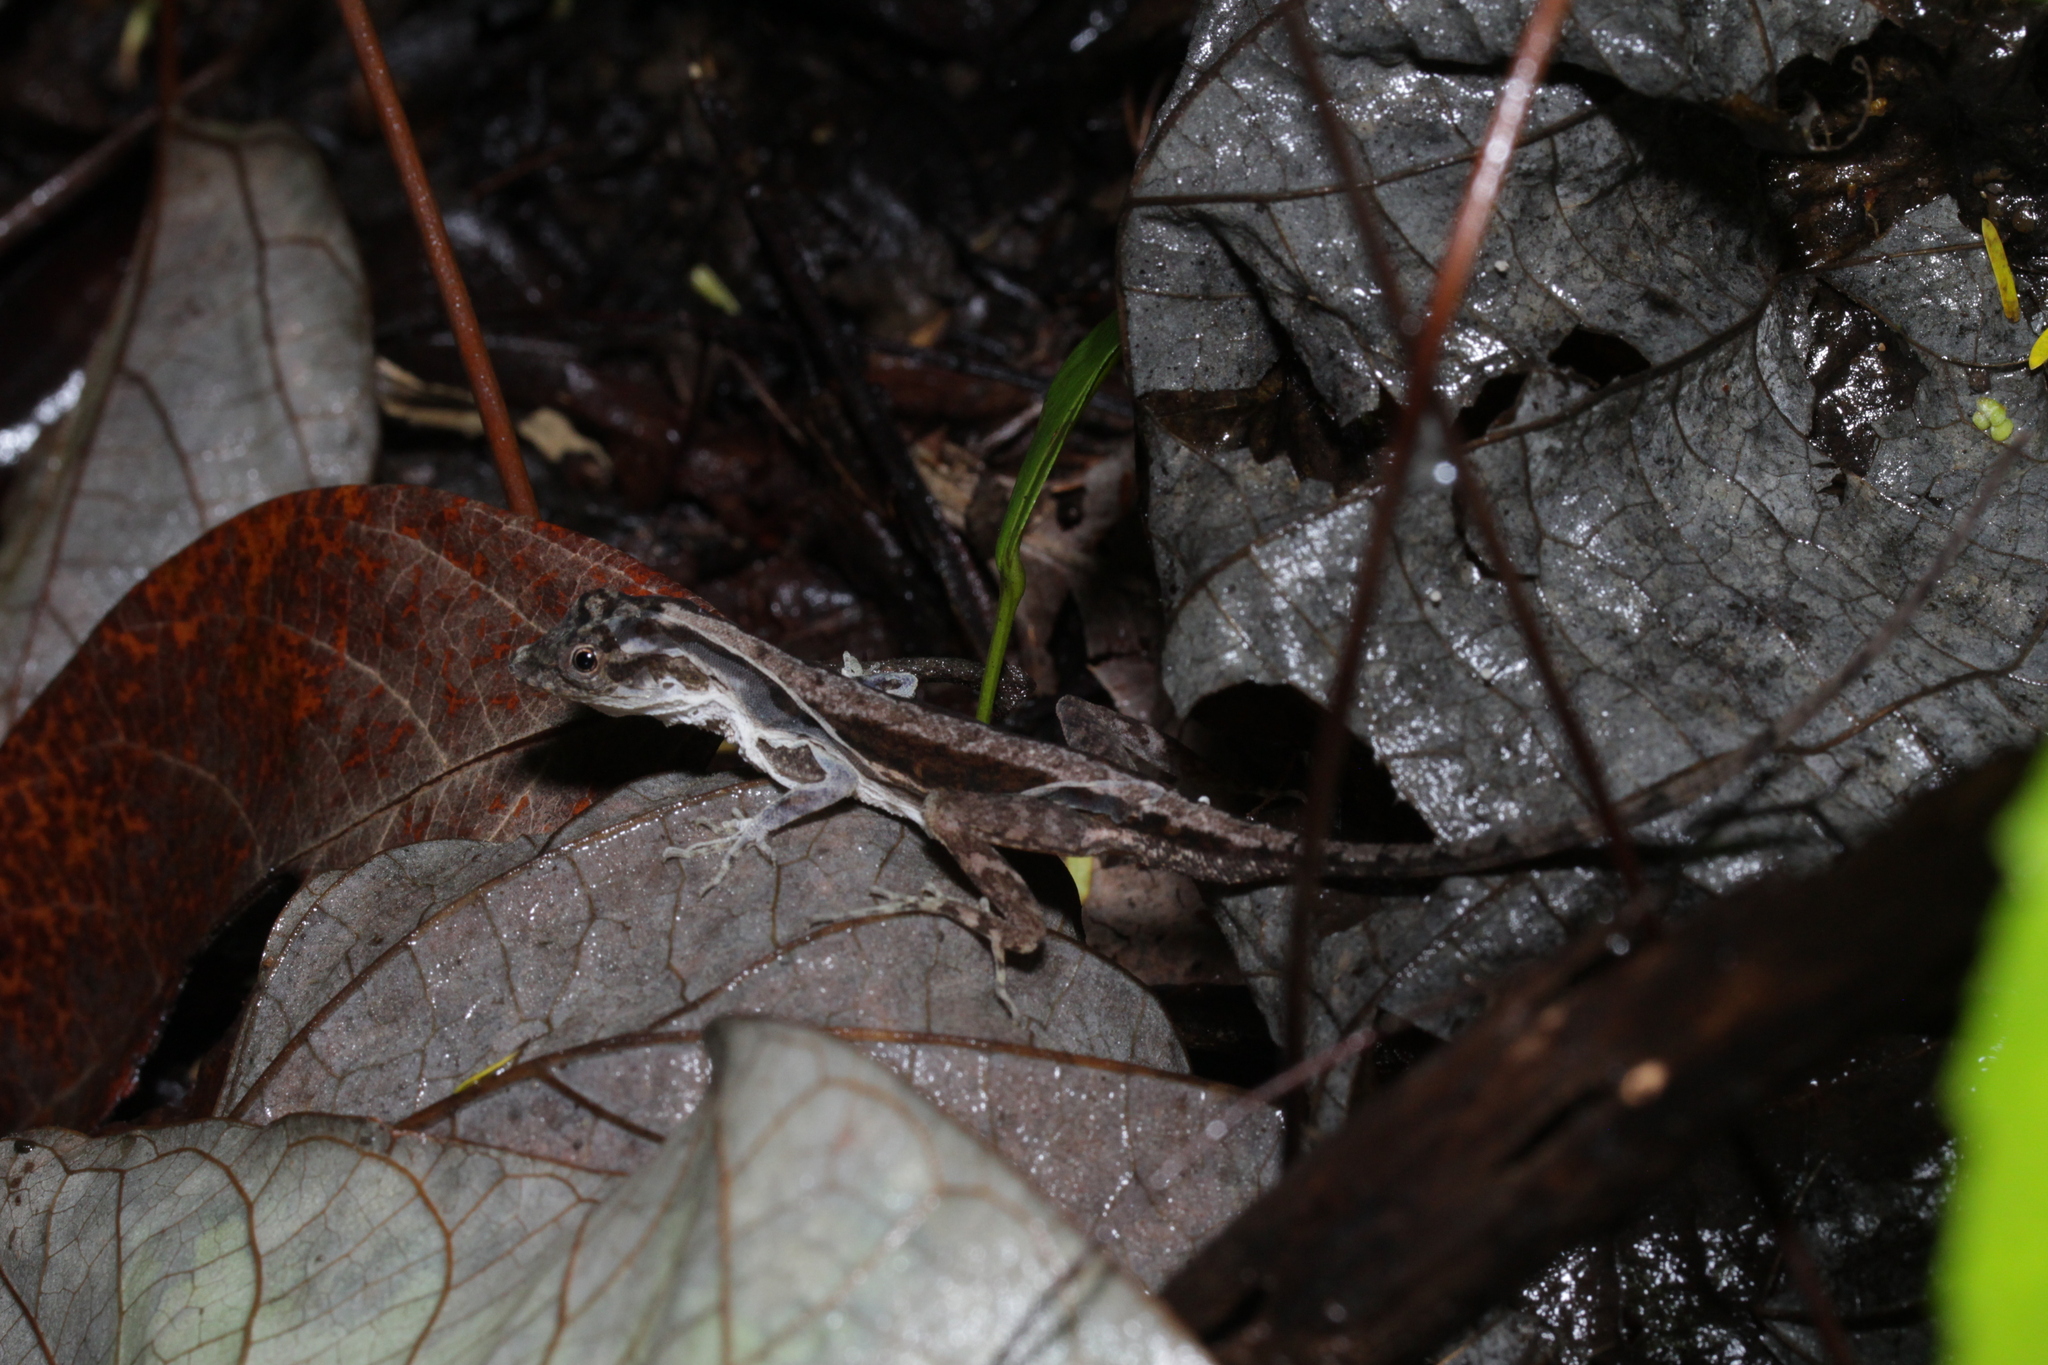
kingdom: Animalia
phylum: Chordata
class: Squamata
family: Dactyloidae
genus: Anolis
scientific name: Anolis humilis
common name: Humble anole
